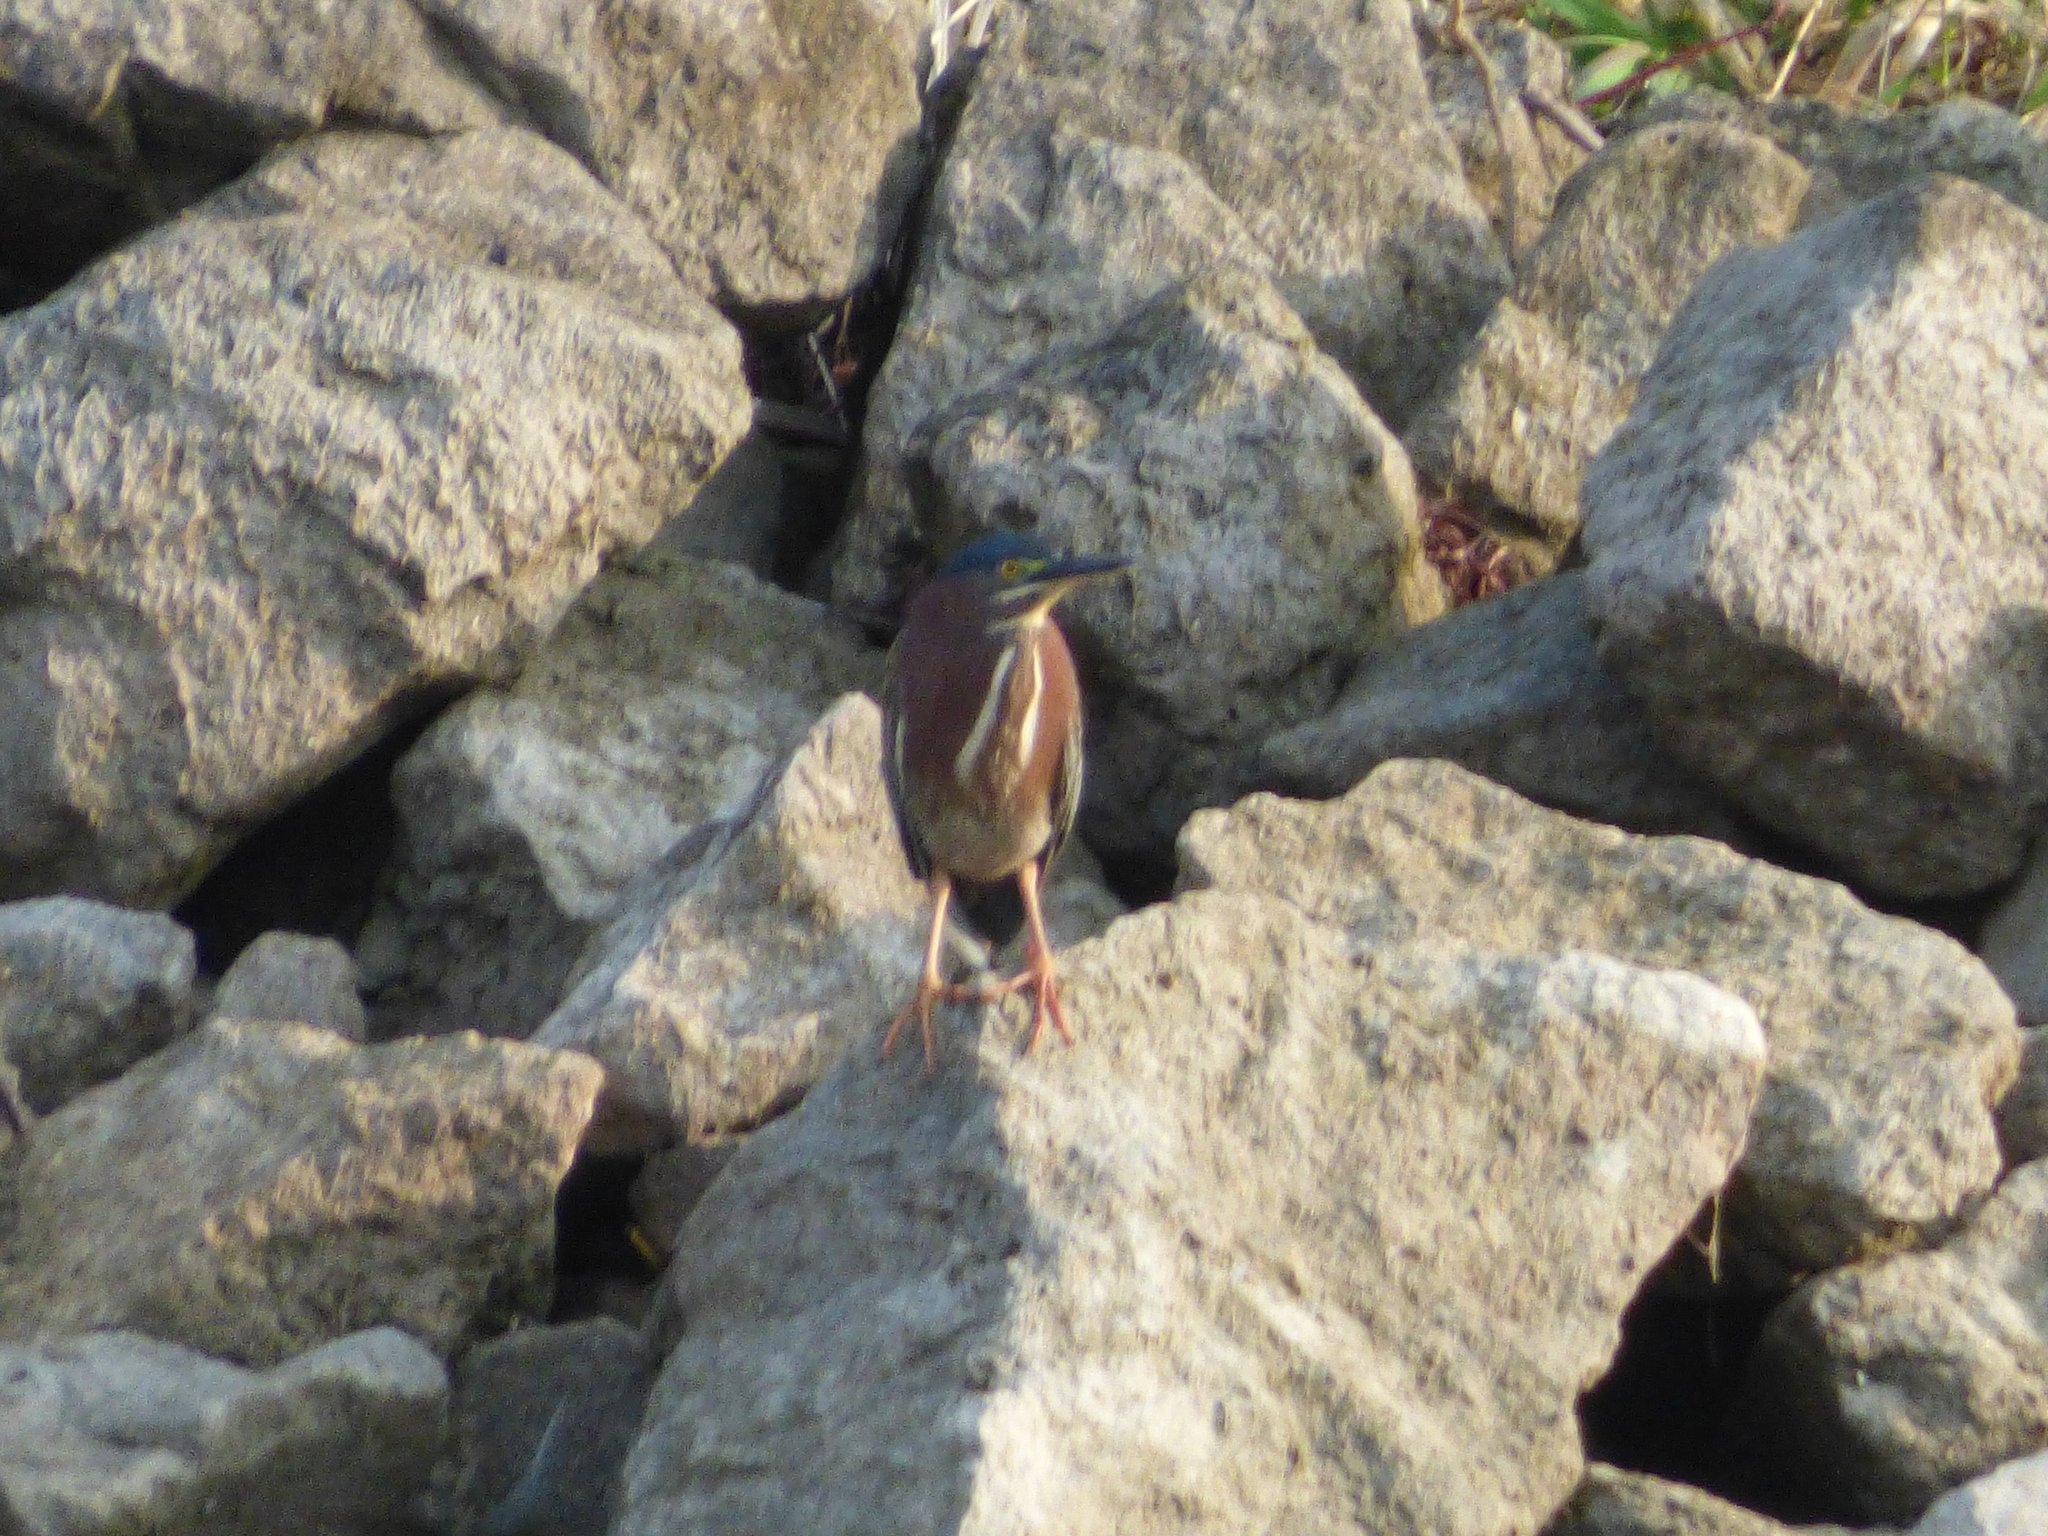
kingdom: Animalia
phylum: Chordata
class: Aves
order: Pelecaniformes
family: Ardeidae
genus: Butorides
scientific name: Butorides virescens
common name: Green heron
